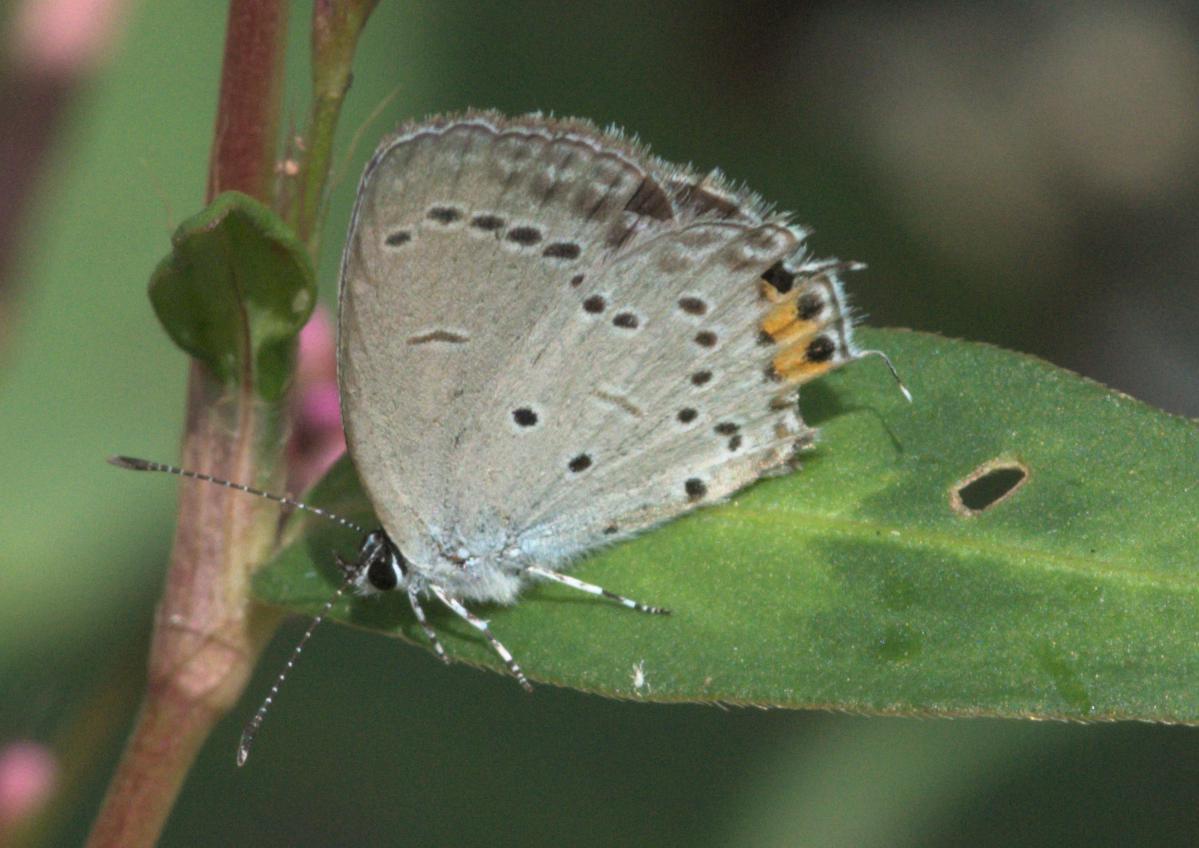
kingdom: Animalia
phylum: Arthropoda
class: Insecta
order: Lepidoptera
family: Lycaenidae
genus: Elkalyce
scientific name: Elkalyce argiades
